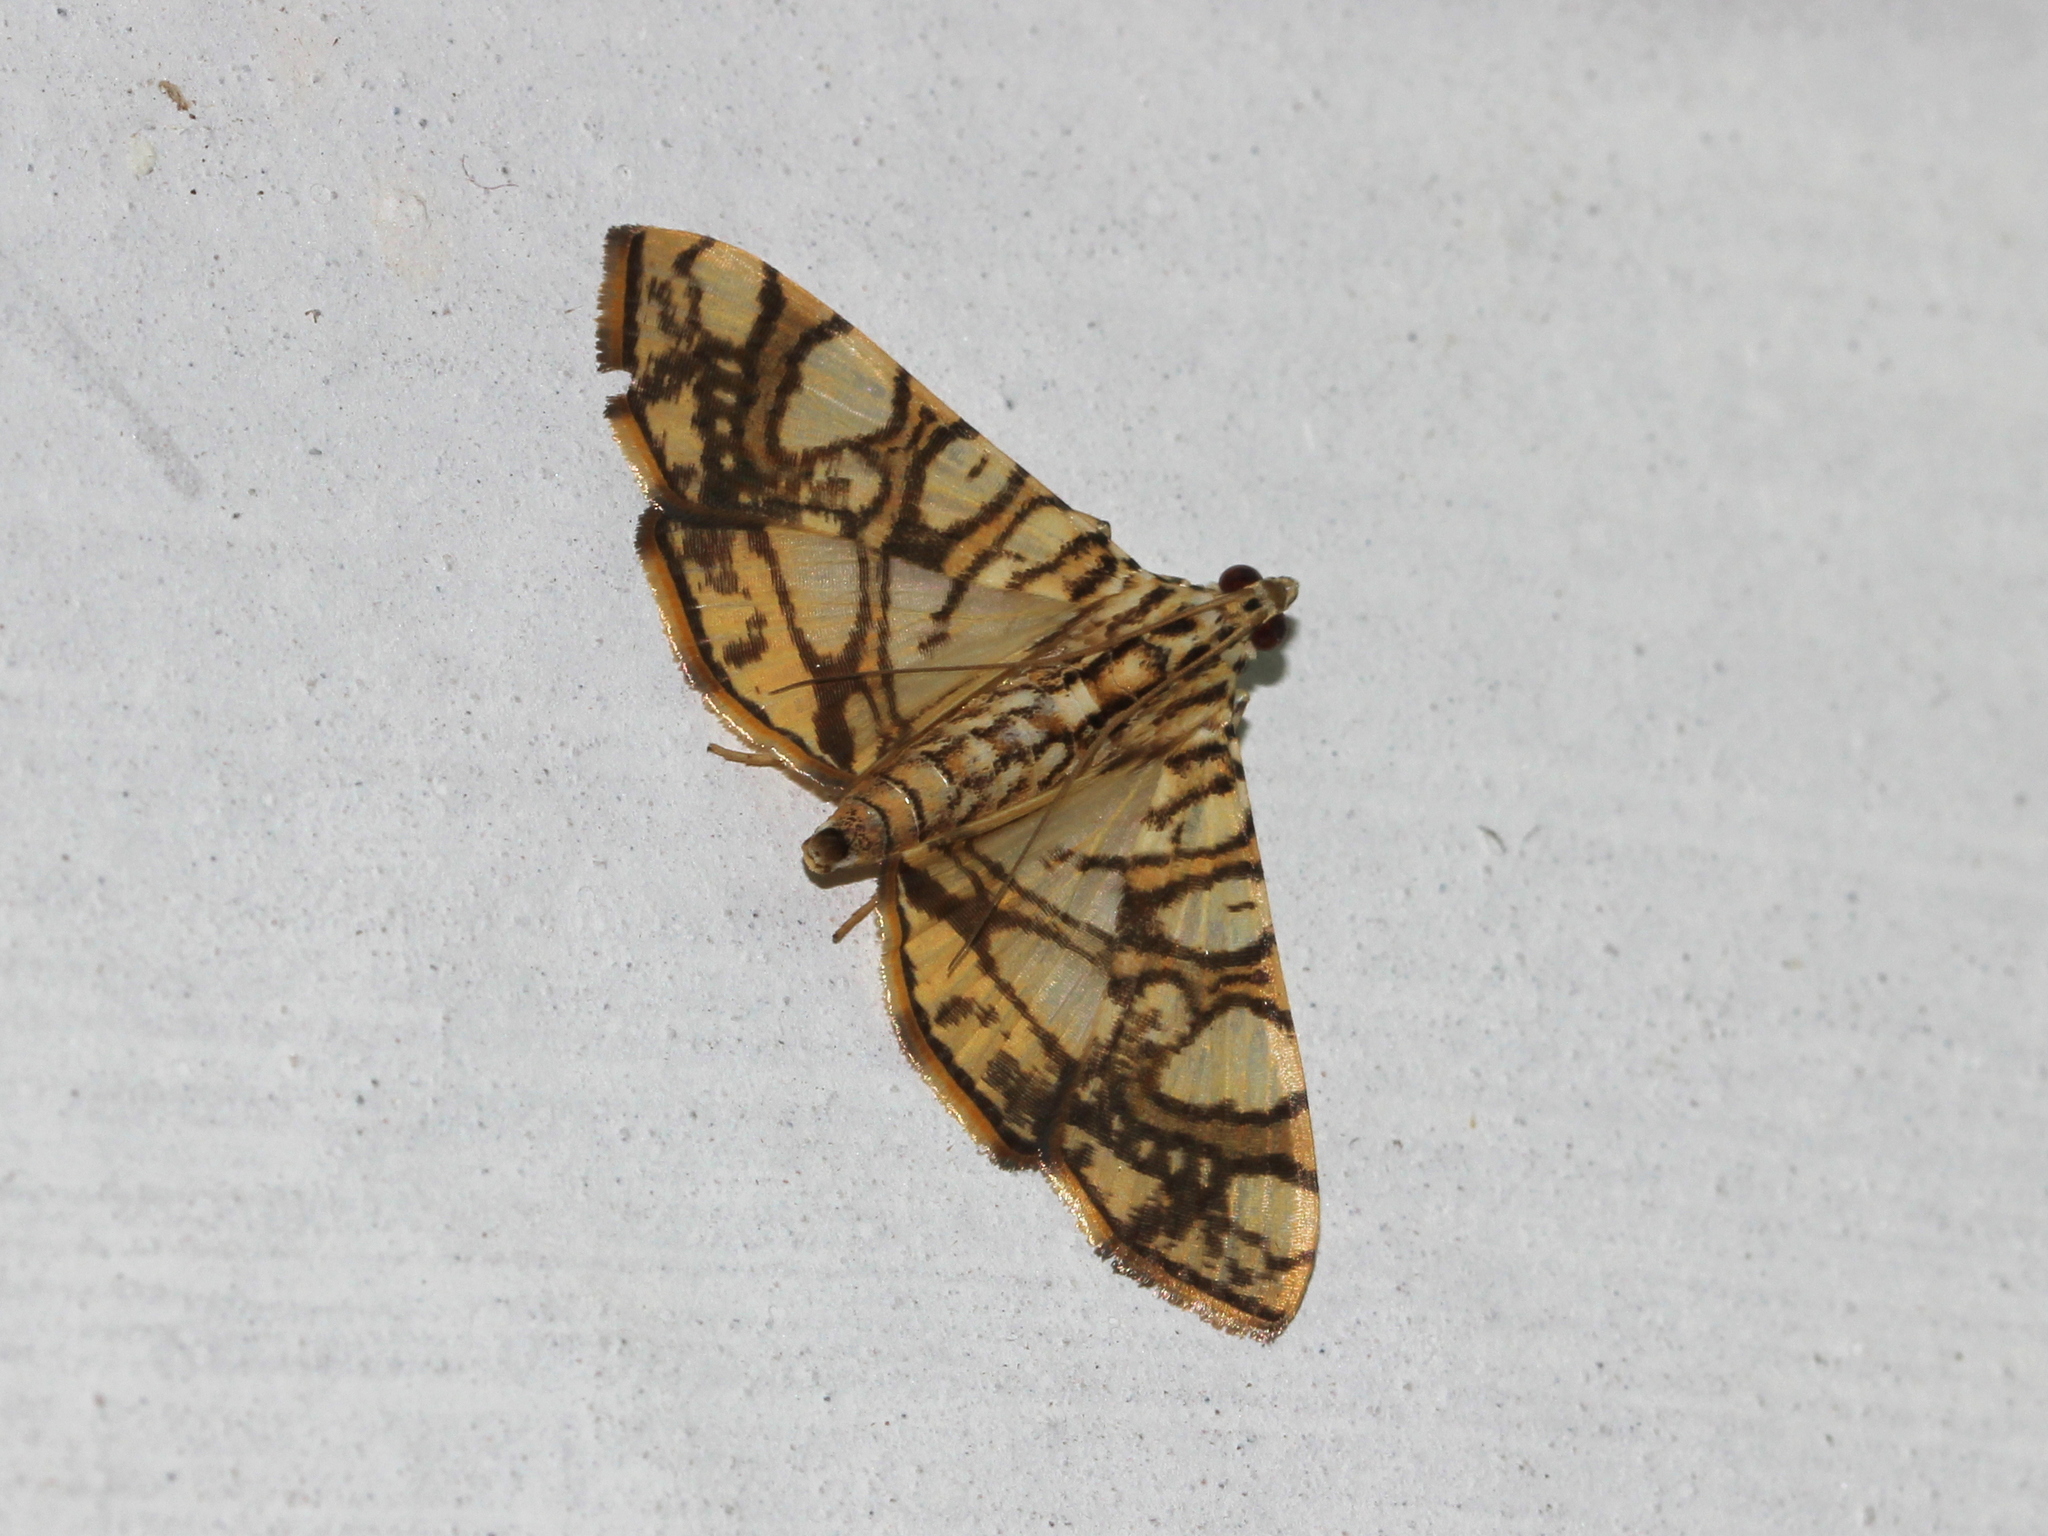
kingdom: Animalia
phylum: Arthropoda
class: Insecta
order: Lepidoptera
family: Crambidae
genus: Glyphodes
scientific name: Glyphodes caesalis
